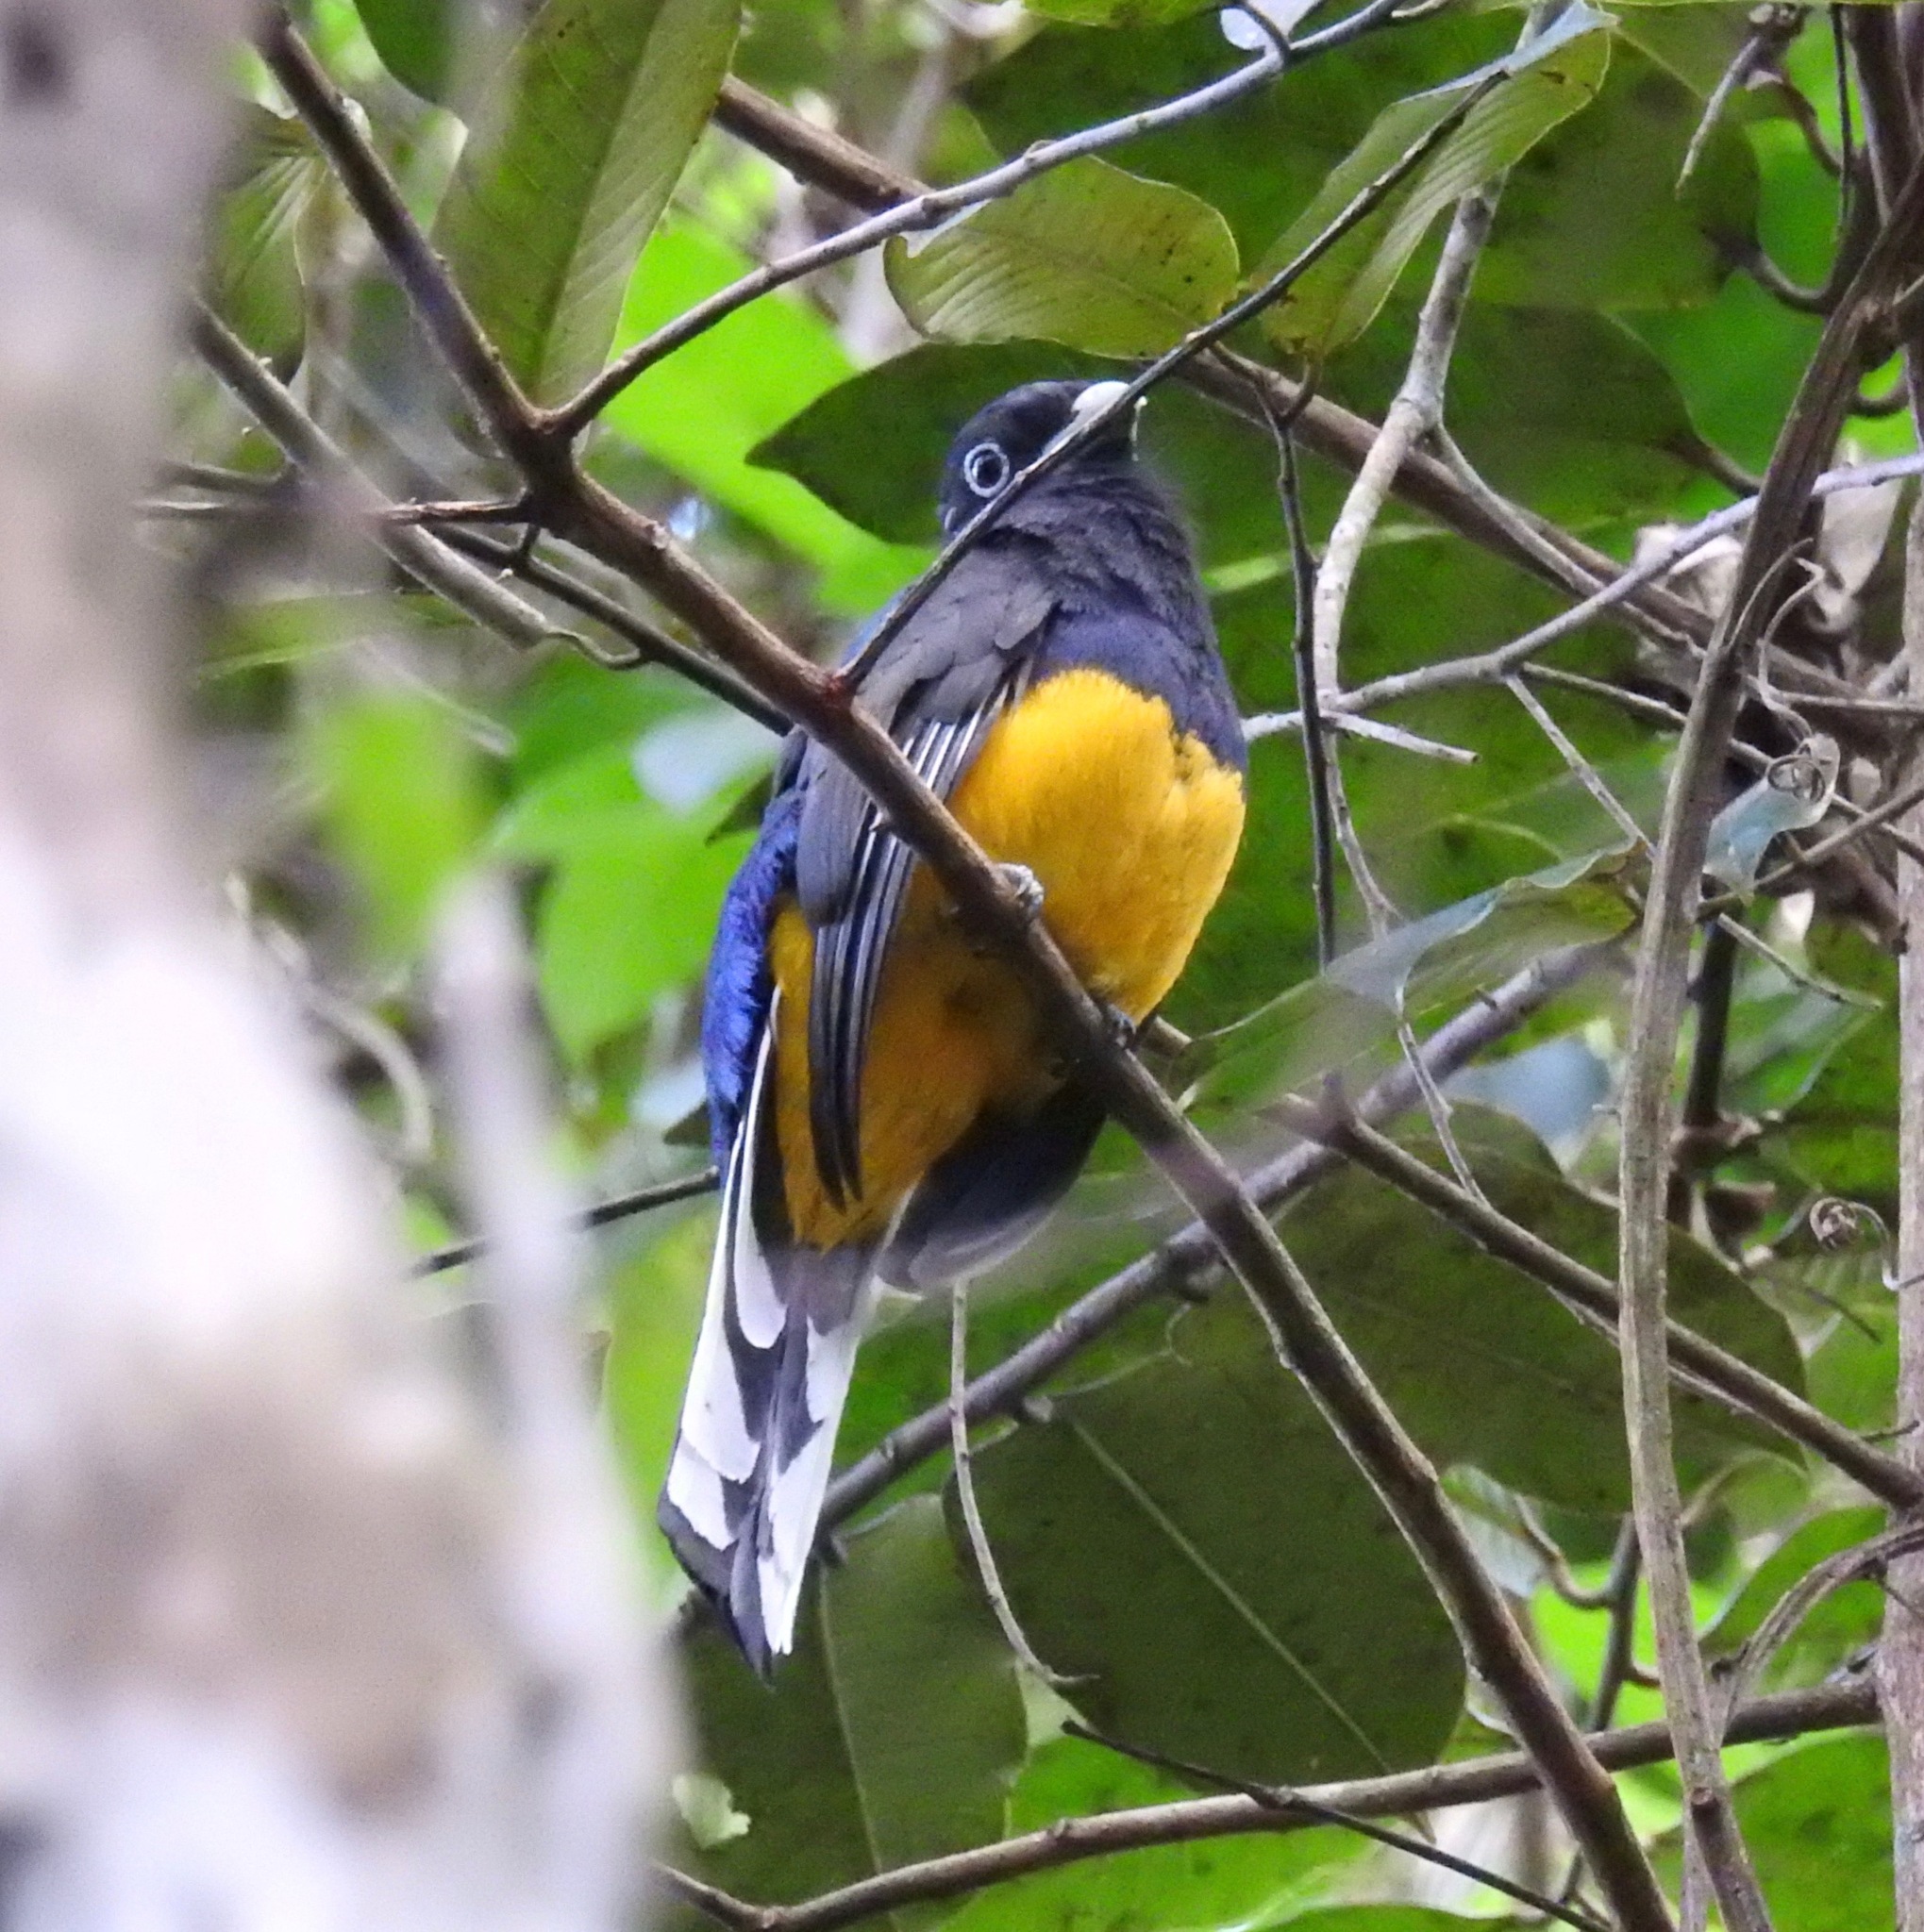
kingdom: Animalia
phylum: Chordata
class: Aves
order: Trogoniformes
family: Trogonidae
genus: Trogon
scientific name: Trogon viridis
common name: Green-backed trogon
